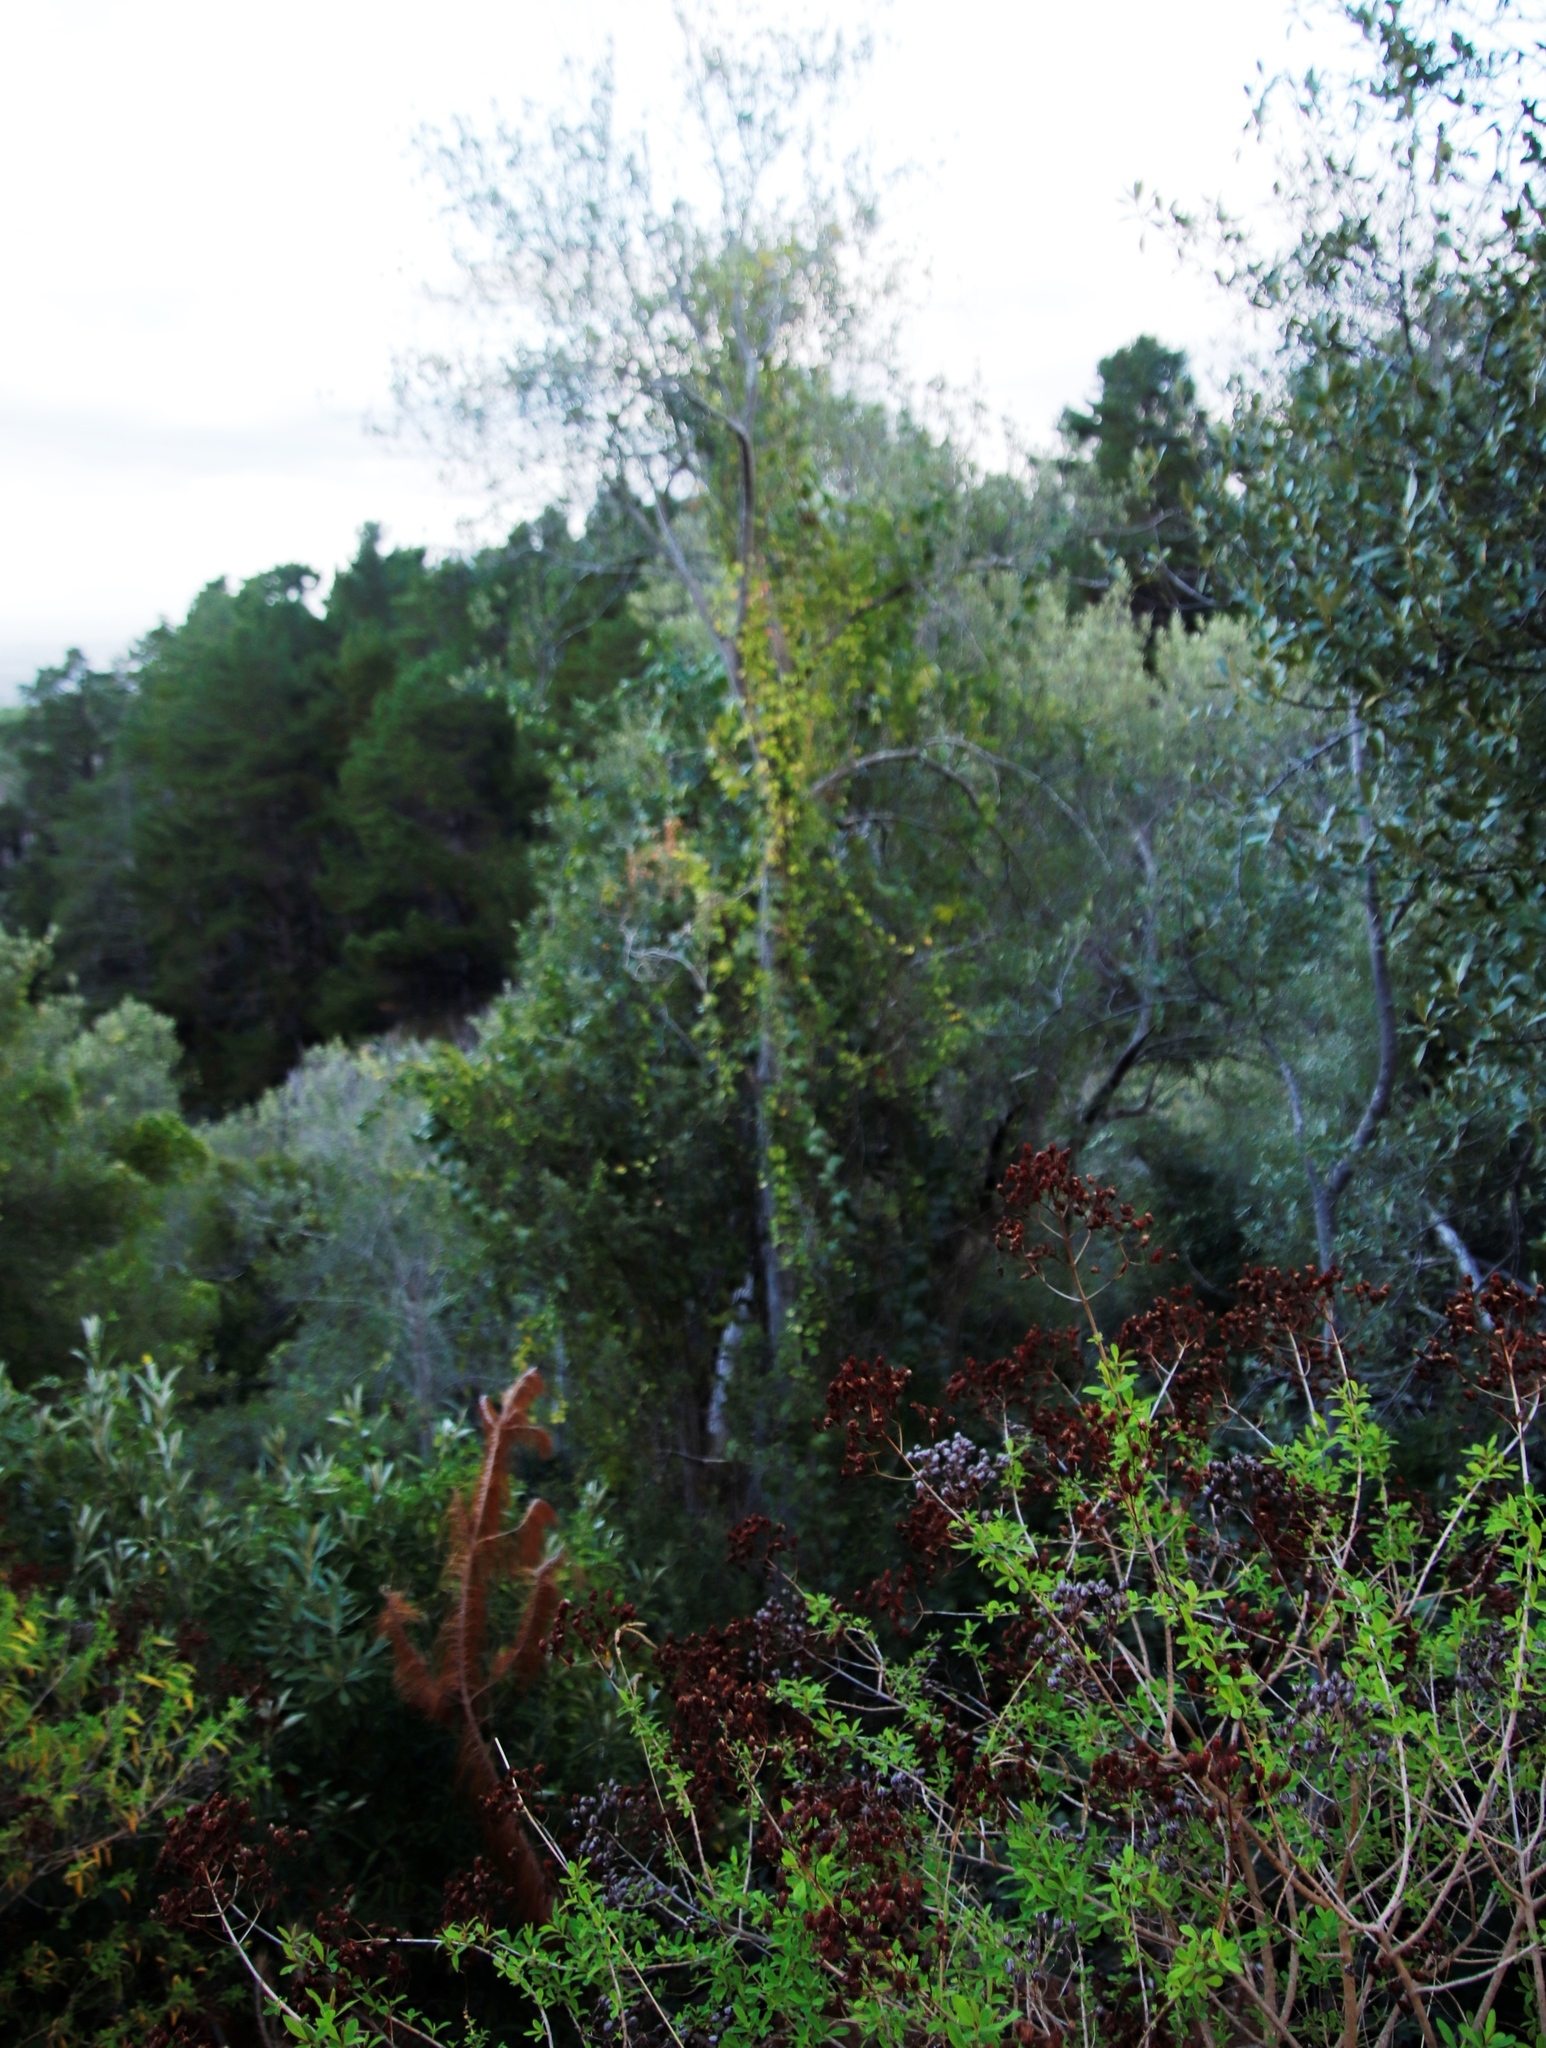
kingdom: Plantae
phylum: Tracheophyta
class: Magnoliopsida
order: Malpighiales
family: Passifloraceae
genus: Passiflora
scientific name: Passiflora tarminiana
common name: Banana poka
